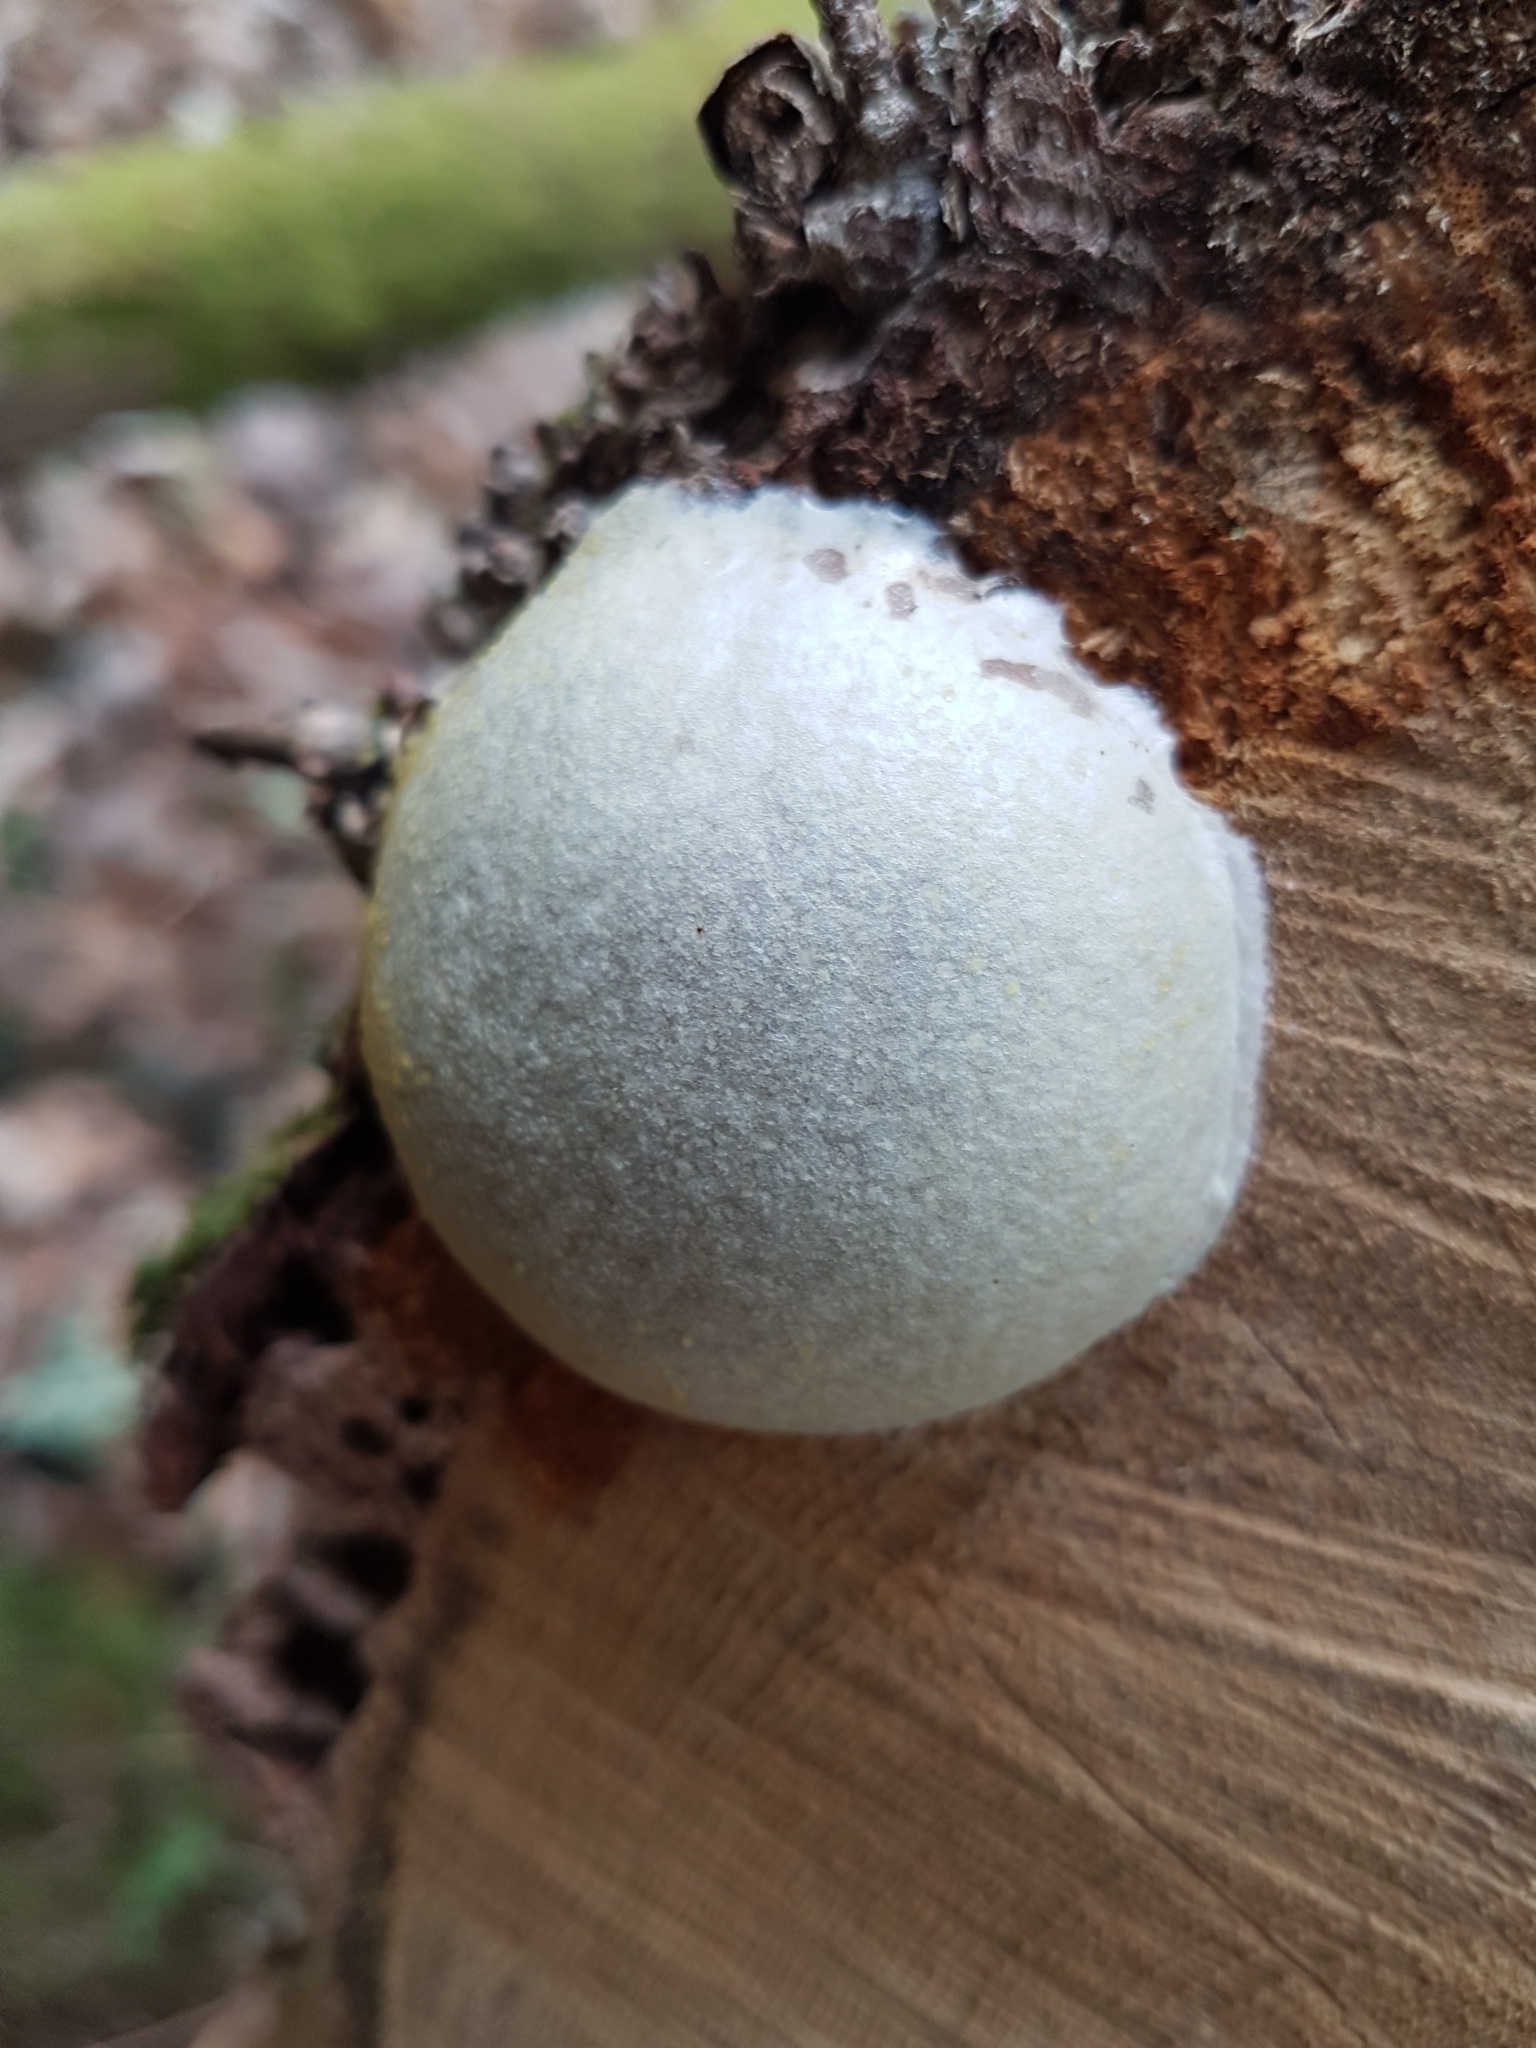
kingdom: Protozoa
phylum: Mycetozoa
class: Myxomycetes
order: Cribrariales
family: Tubiferaceae
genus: Reticularia
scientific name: Reticularia lycoperdon
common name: False puffball
